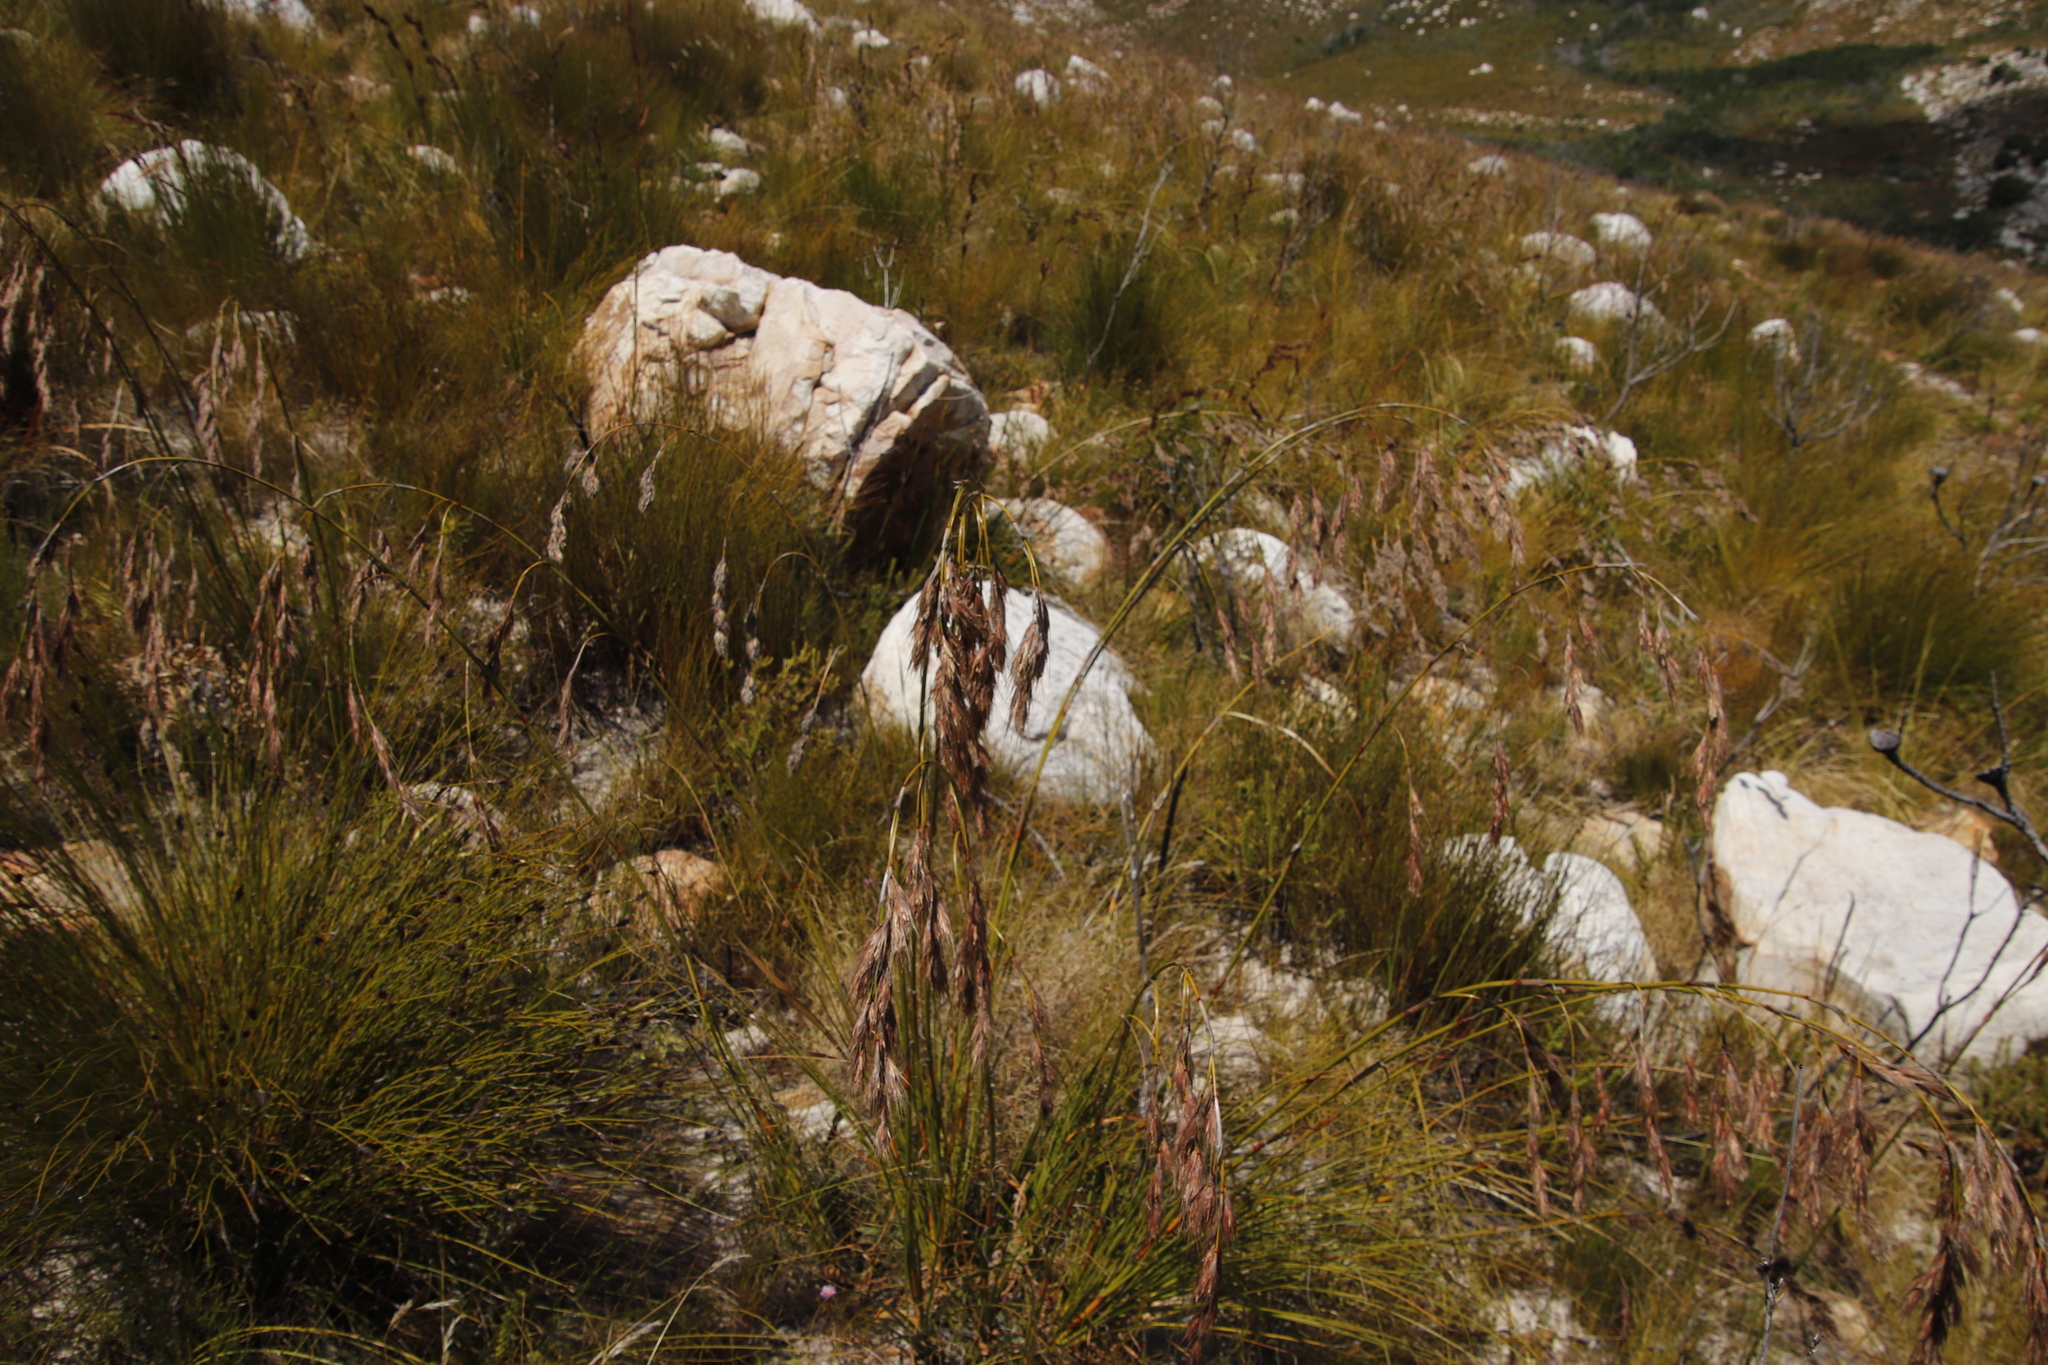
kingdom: Plantae
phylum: Tracheophyta
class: Liliopsida
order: Poales
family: Cyperaceae
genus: Tetraria
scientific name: Tetraria bromoides
